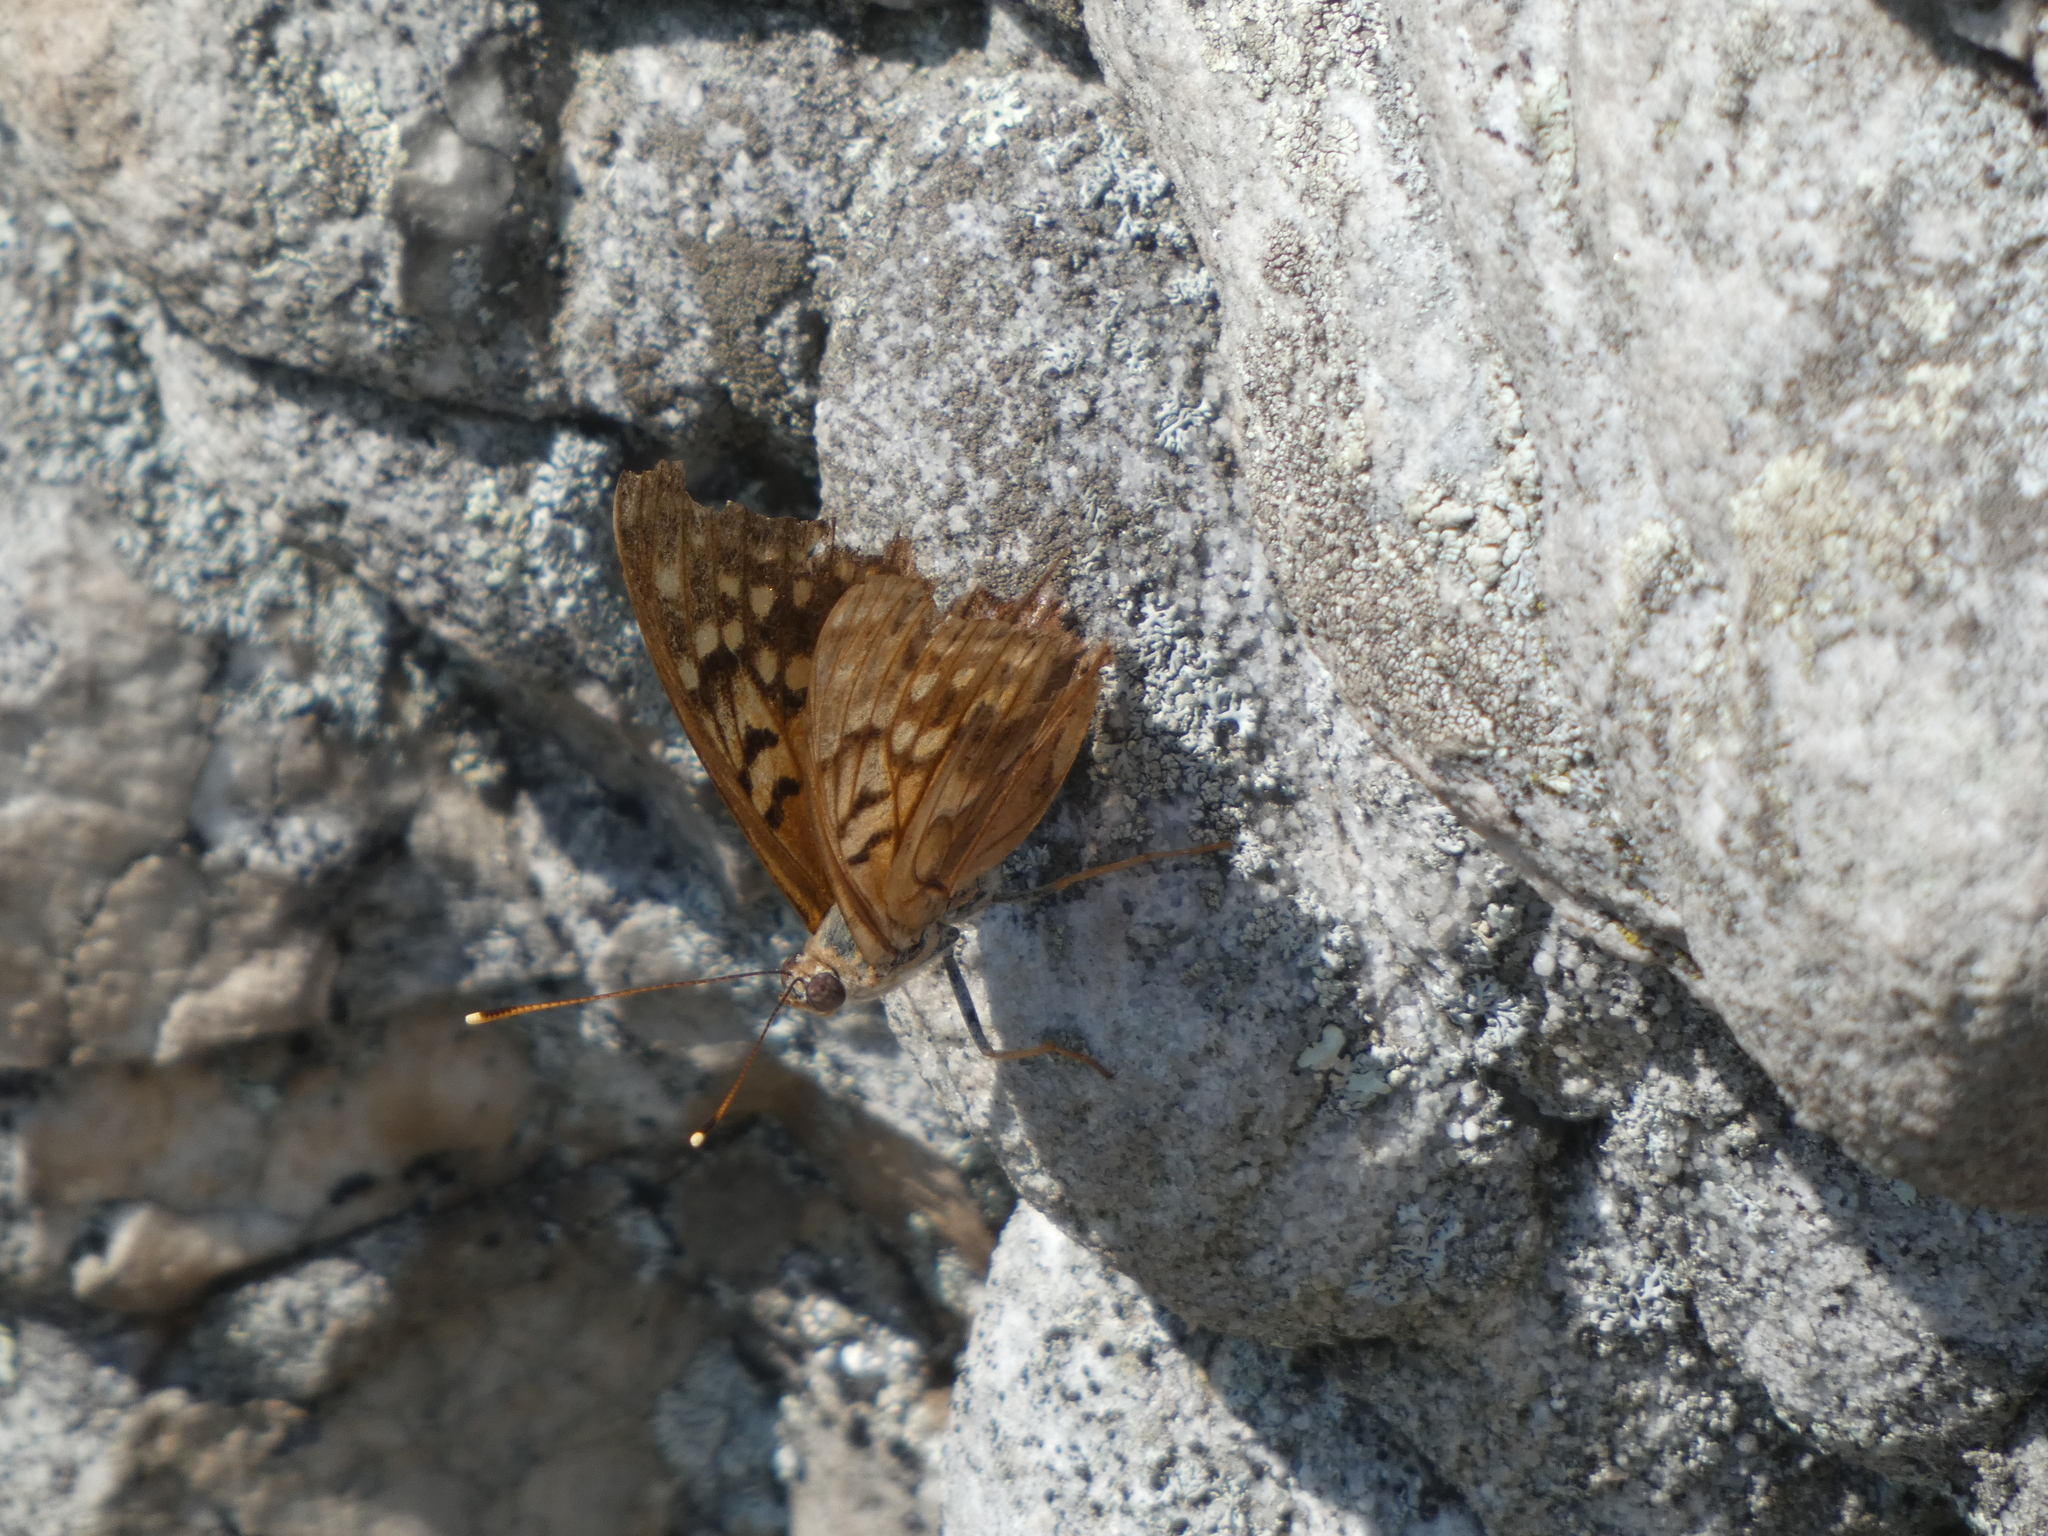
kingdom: Animalia
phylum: Arthropoda
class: Insecta
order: Lepidoptera
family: Nymphalidae
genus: Asterocampa
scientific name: Asterocampa clyton
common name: Tawny emperor
